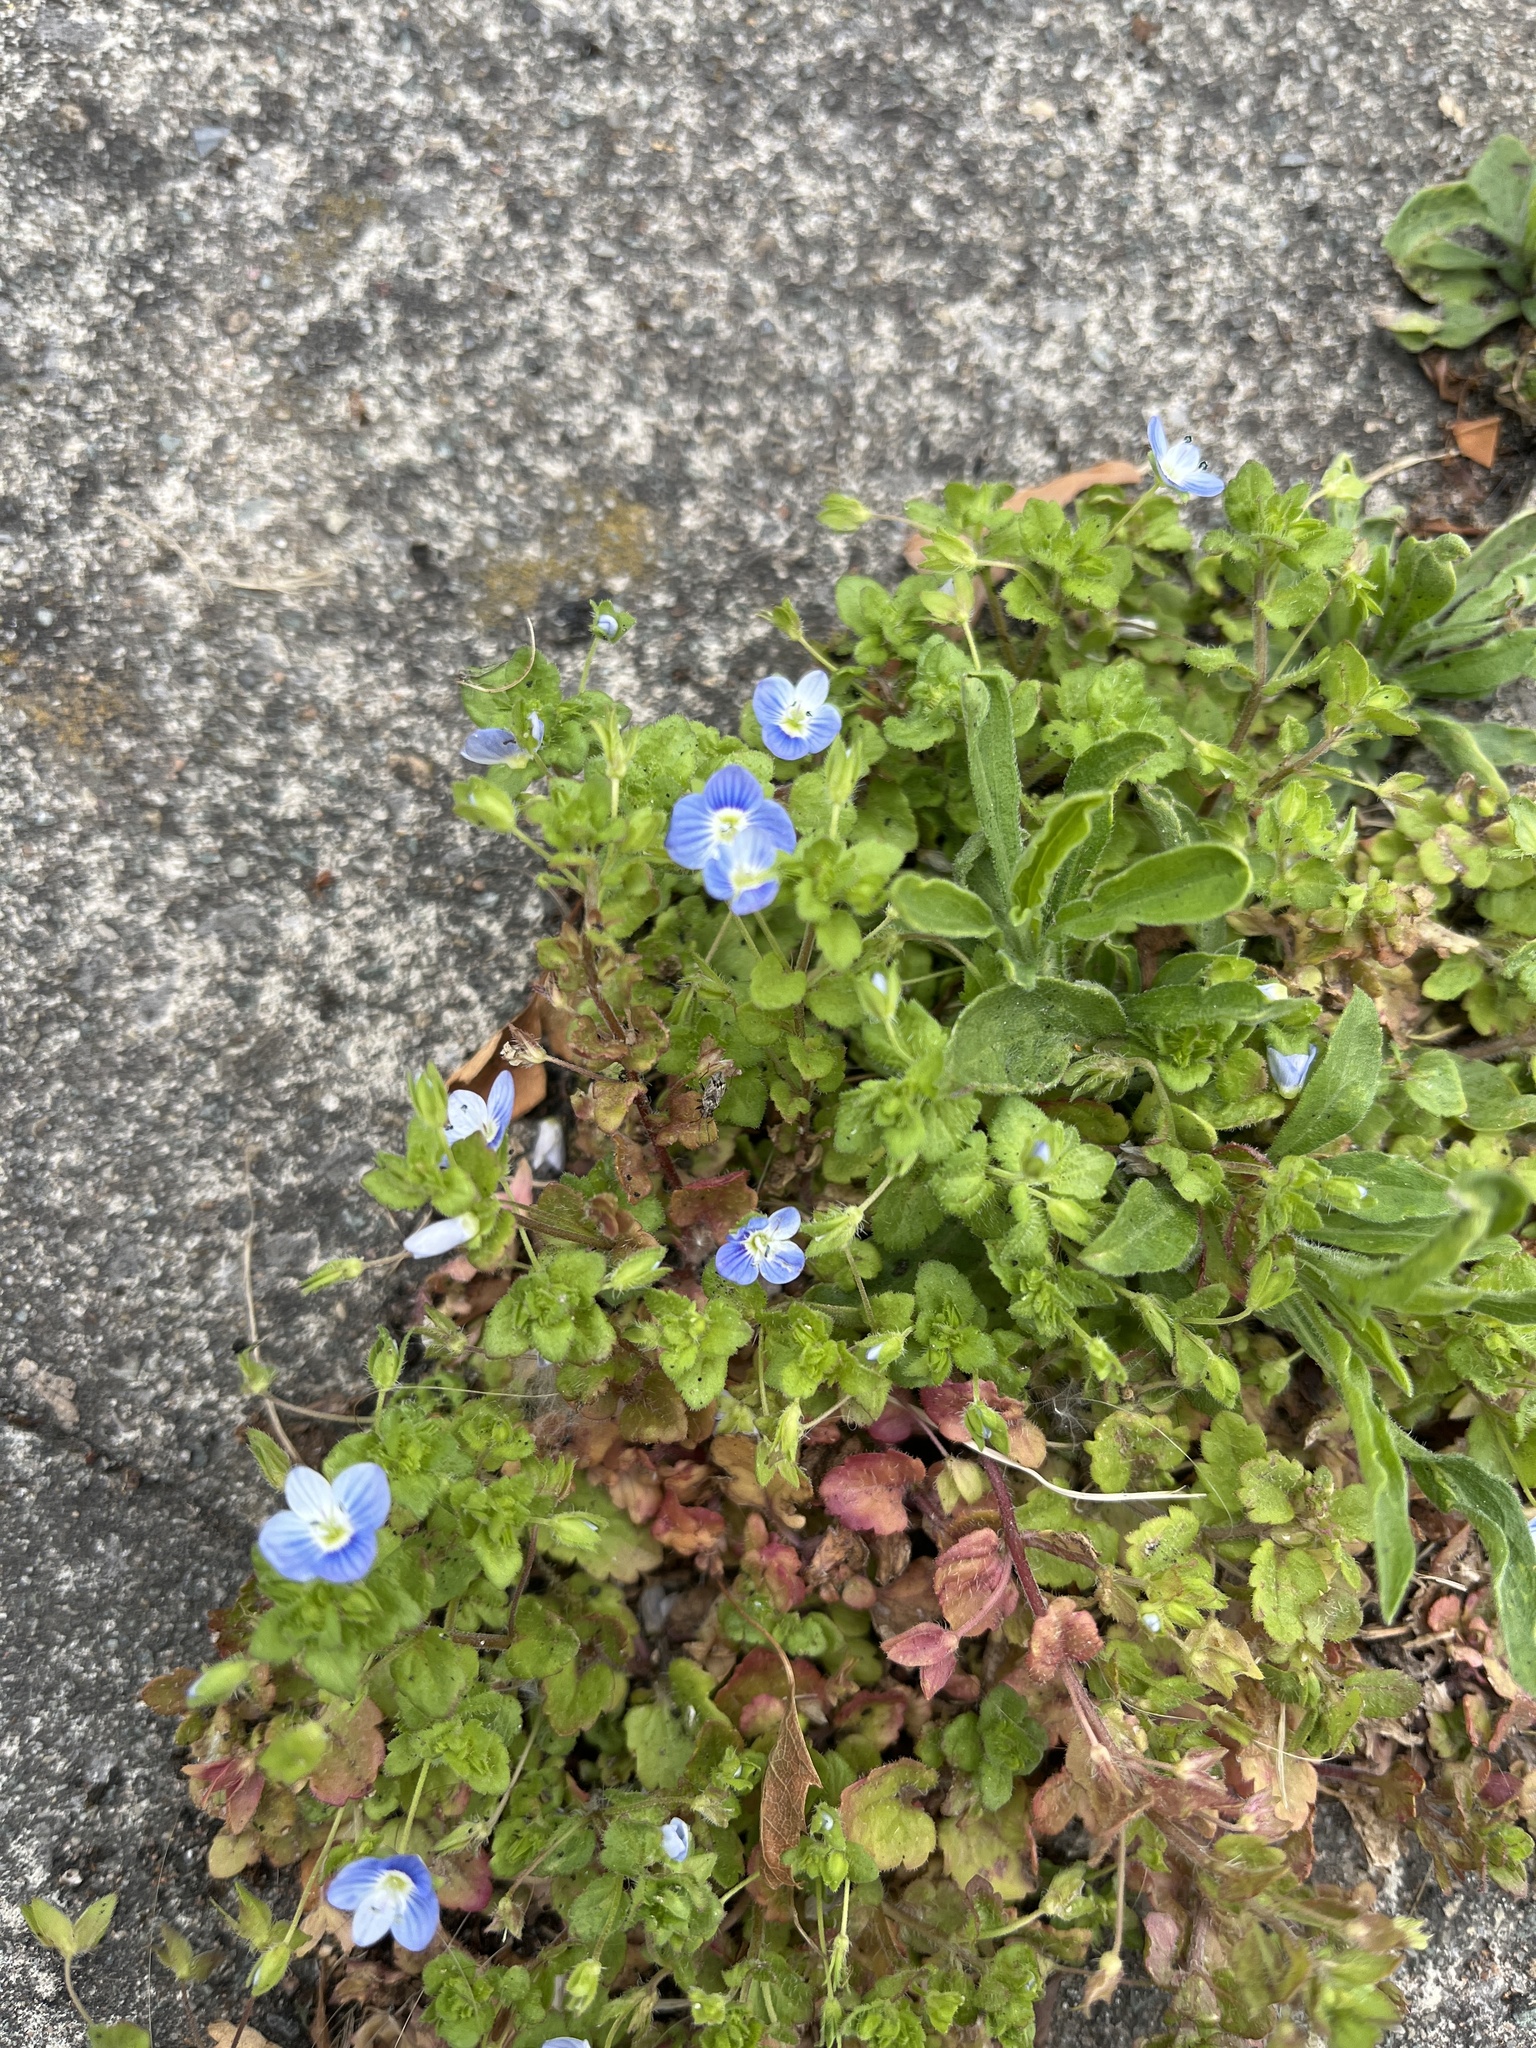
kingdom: Plantae
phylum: Tracheophyta
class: Magnoliopsida
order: Lamiales
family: Plantaginaceae
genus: Veronica
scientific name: Veronica persica
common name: Common field-speedwell
